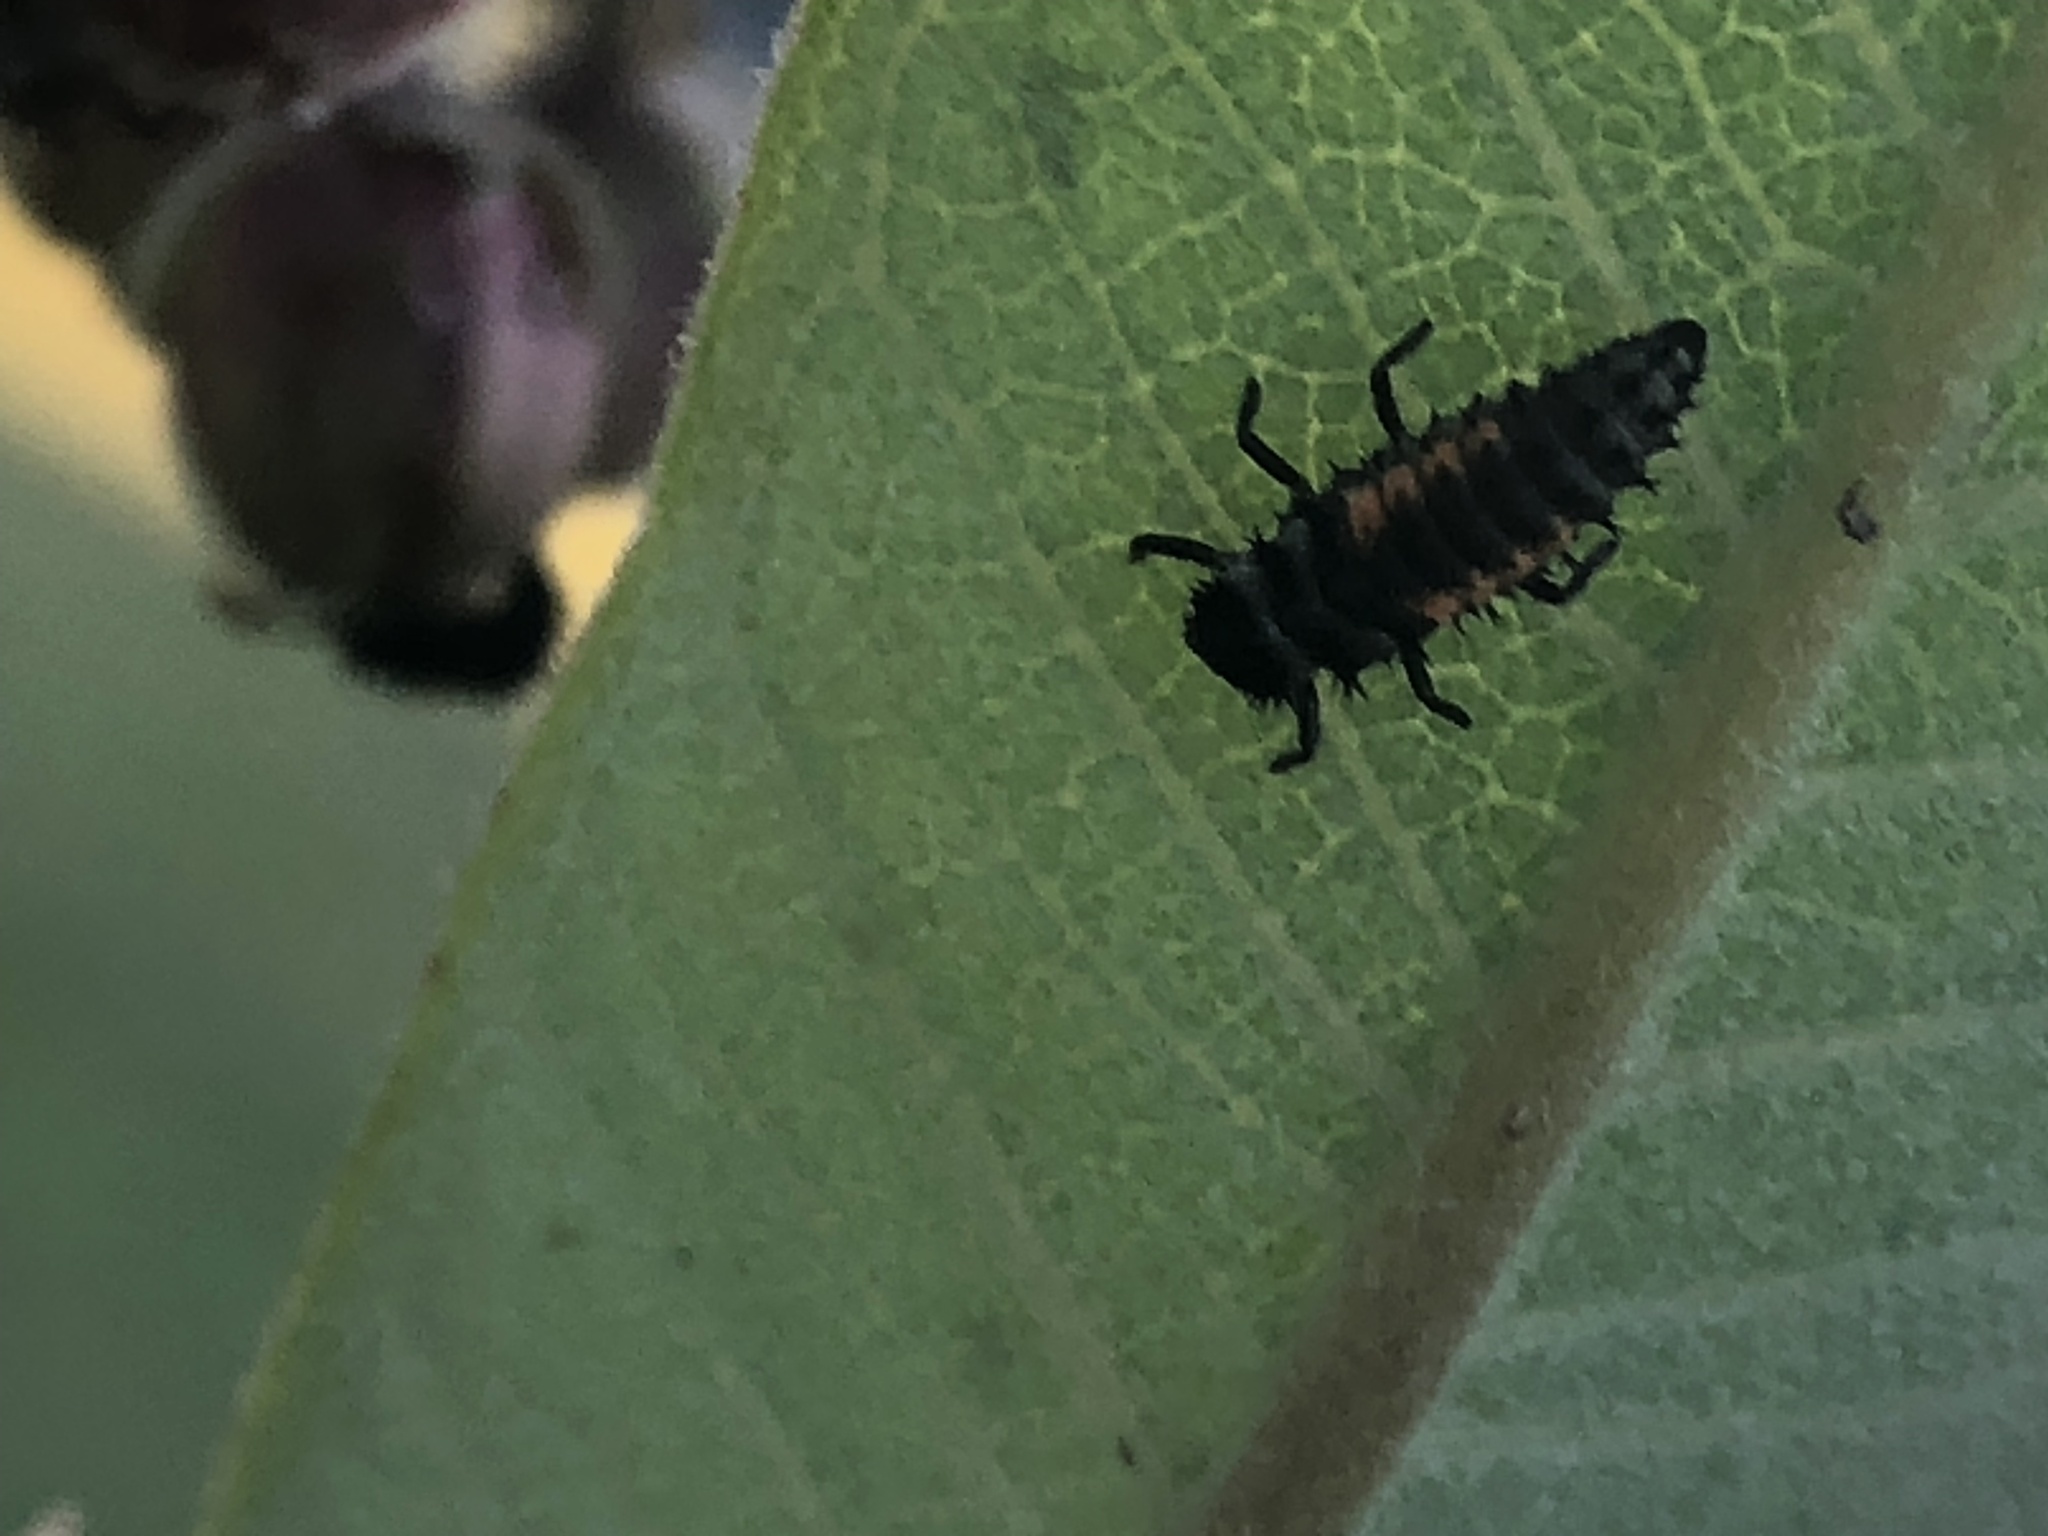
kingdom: Animalia
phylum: Arthropoda
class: Insecta
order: Coleoptera
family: Coccinellidae
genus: Harmonia
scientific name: Harmonia axyridis
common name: Harlequin ladybird
